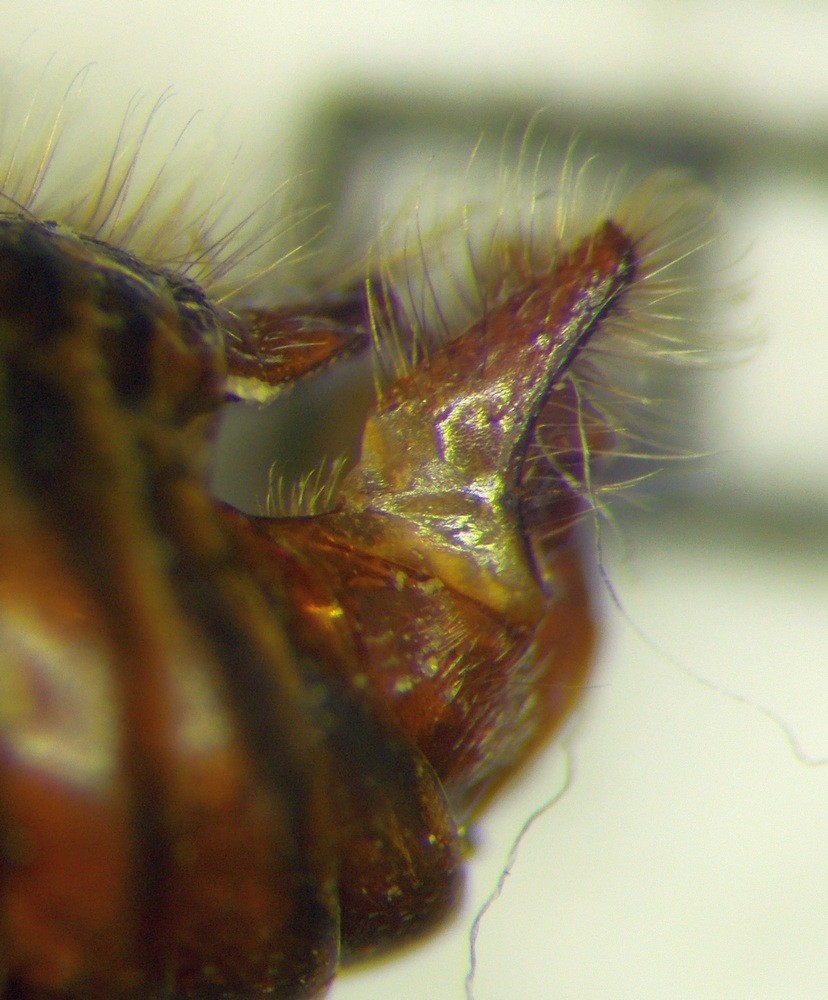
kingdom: Animalia
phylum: Arthropoda
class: Insecta
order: Hymenoptera
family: Formicidae
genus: Cataglyphis
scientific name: Cataglyphis nodus
